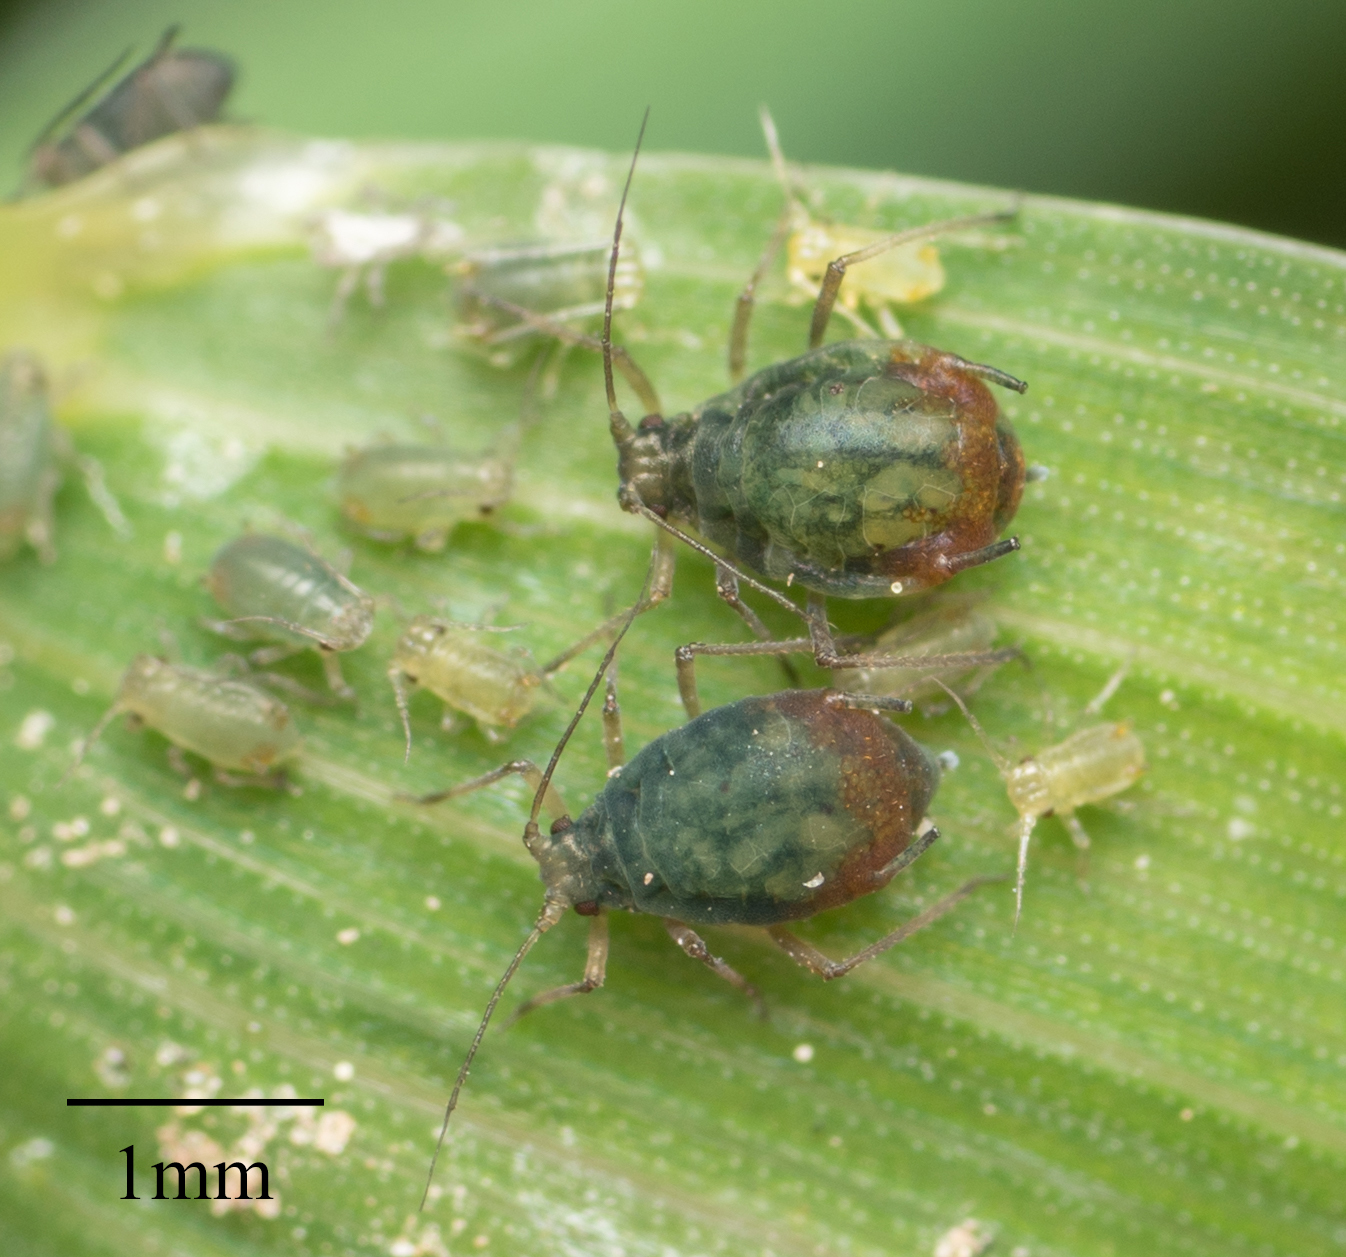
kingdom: Animalia
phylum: Arthropoda
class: Insecta
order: Hemiptera
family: Aphididae
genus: Rhopalosiphum
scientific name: Rhopalosiphum padi
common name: Oat-birdcherry aphid
